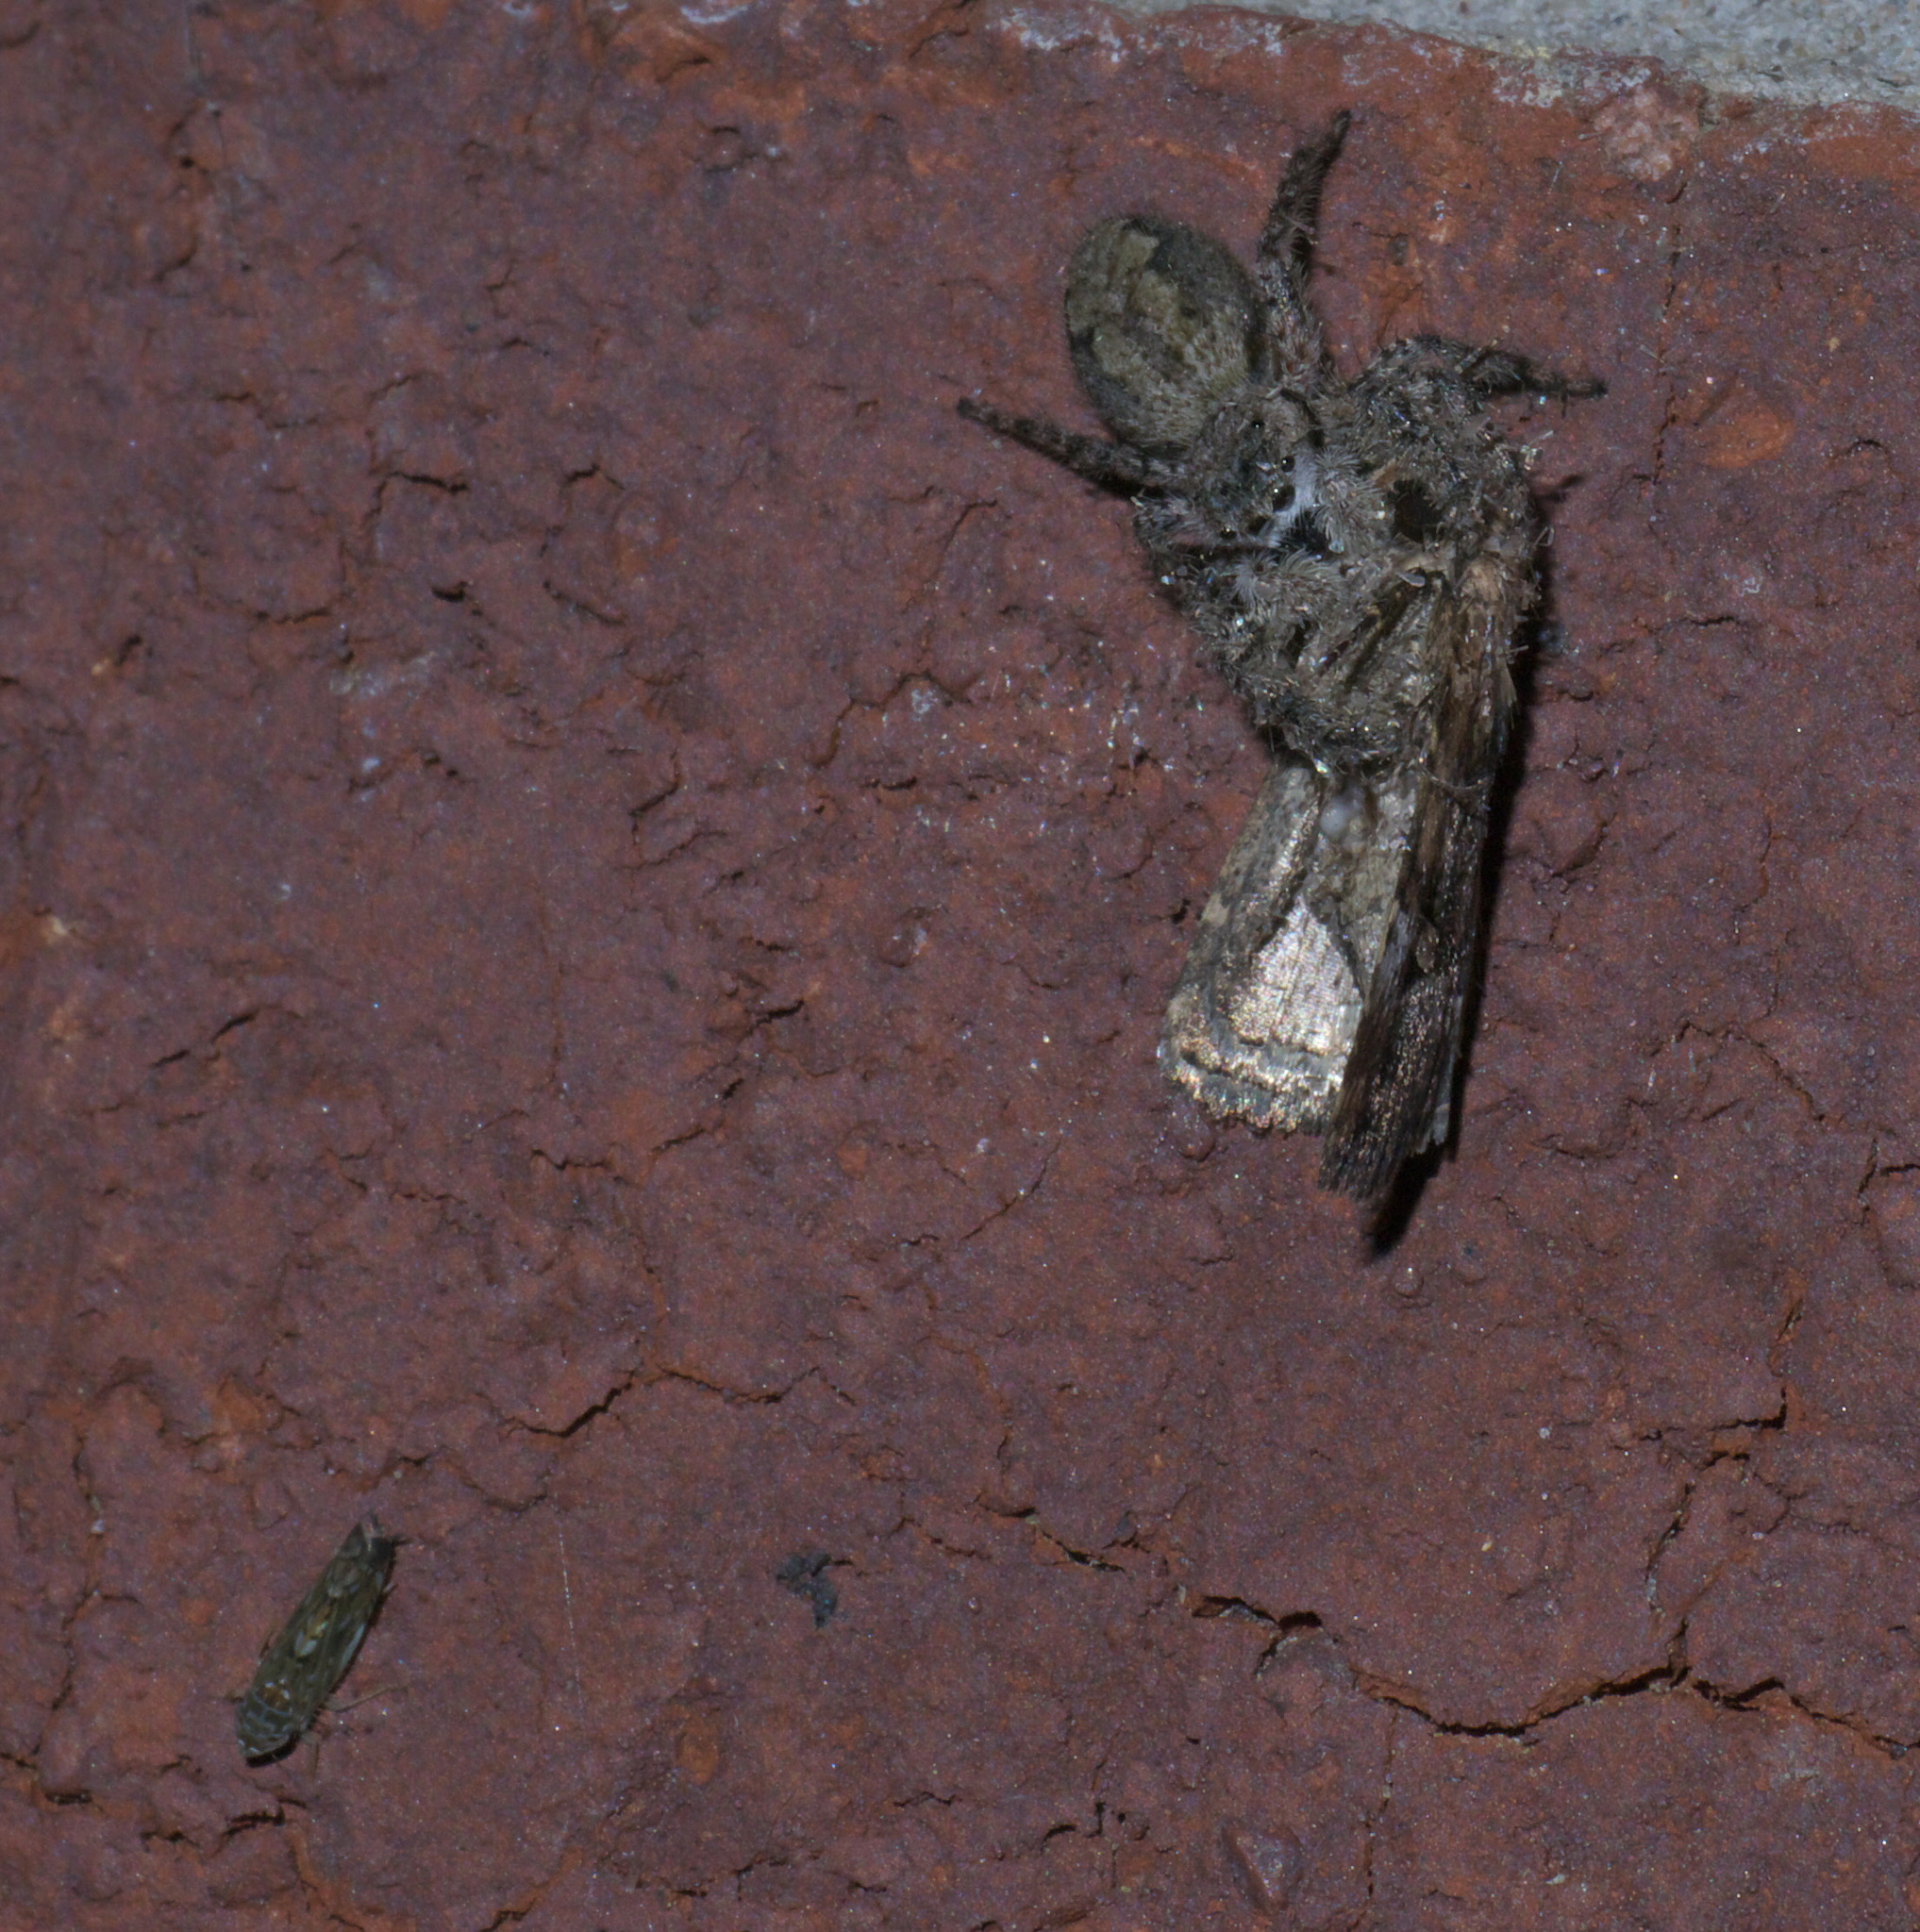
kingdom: Animalia
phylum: Arthropoda
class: Arachnida
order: Araneae
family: Salticidae
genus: Platycryptus
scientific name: Platycryptus undatus
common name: Tan jumping spider
